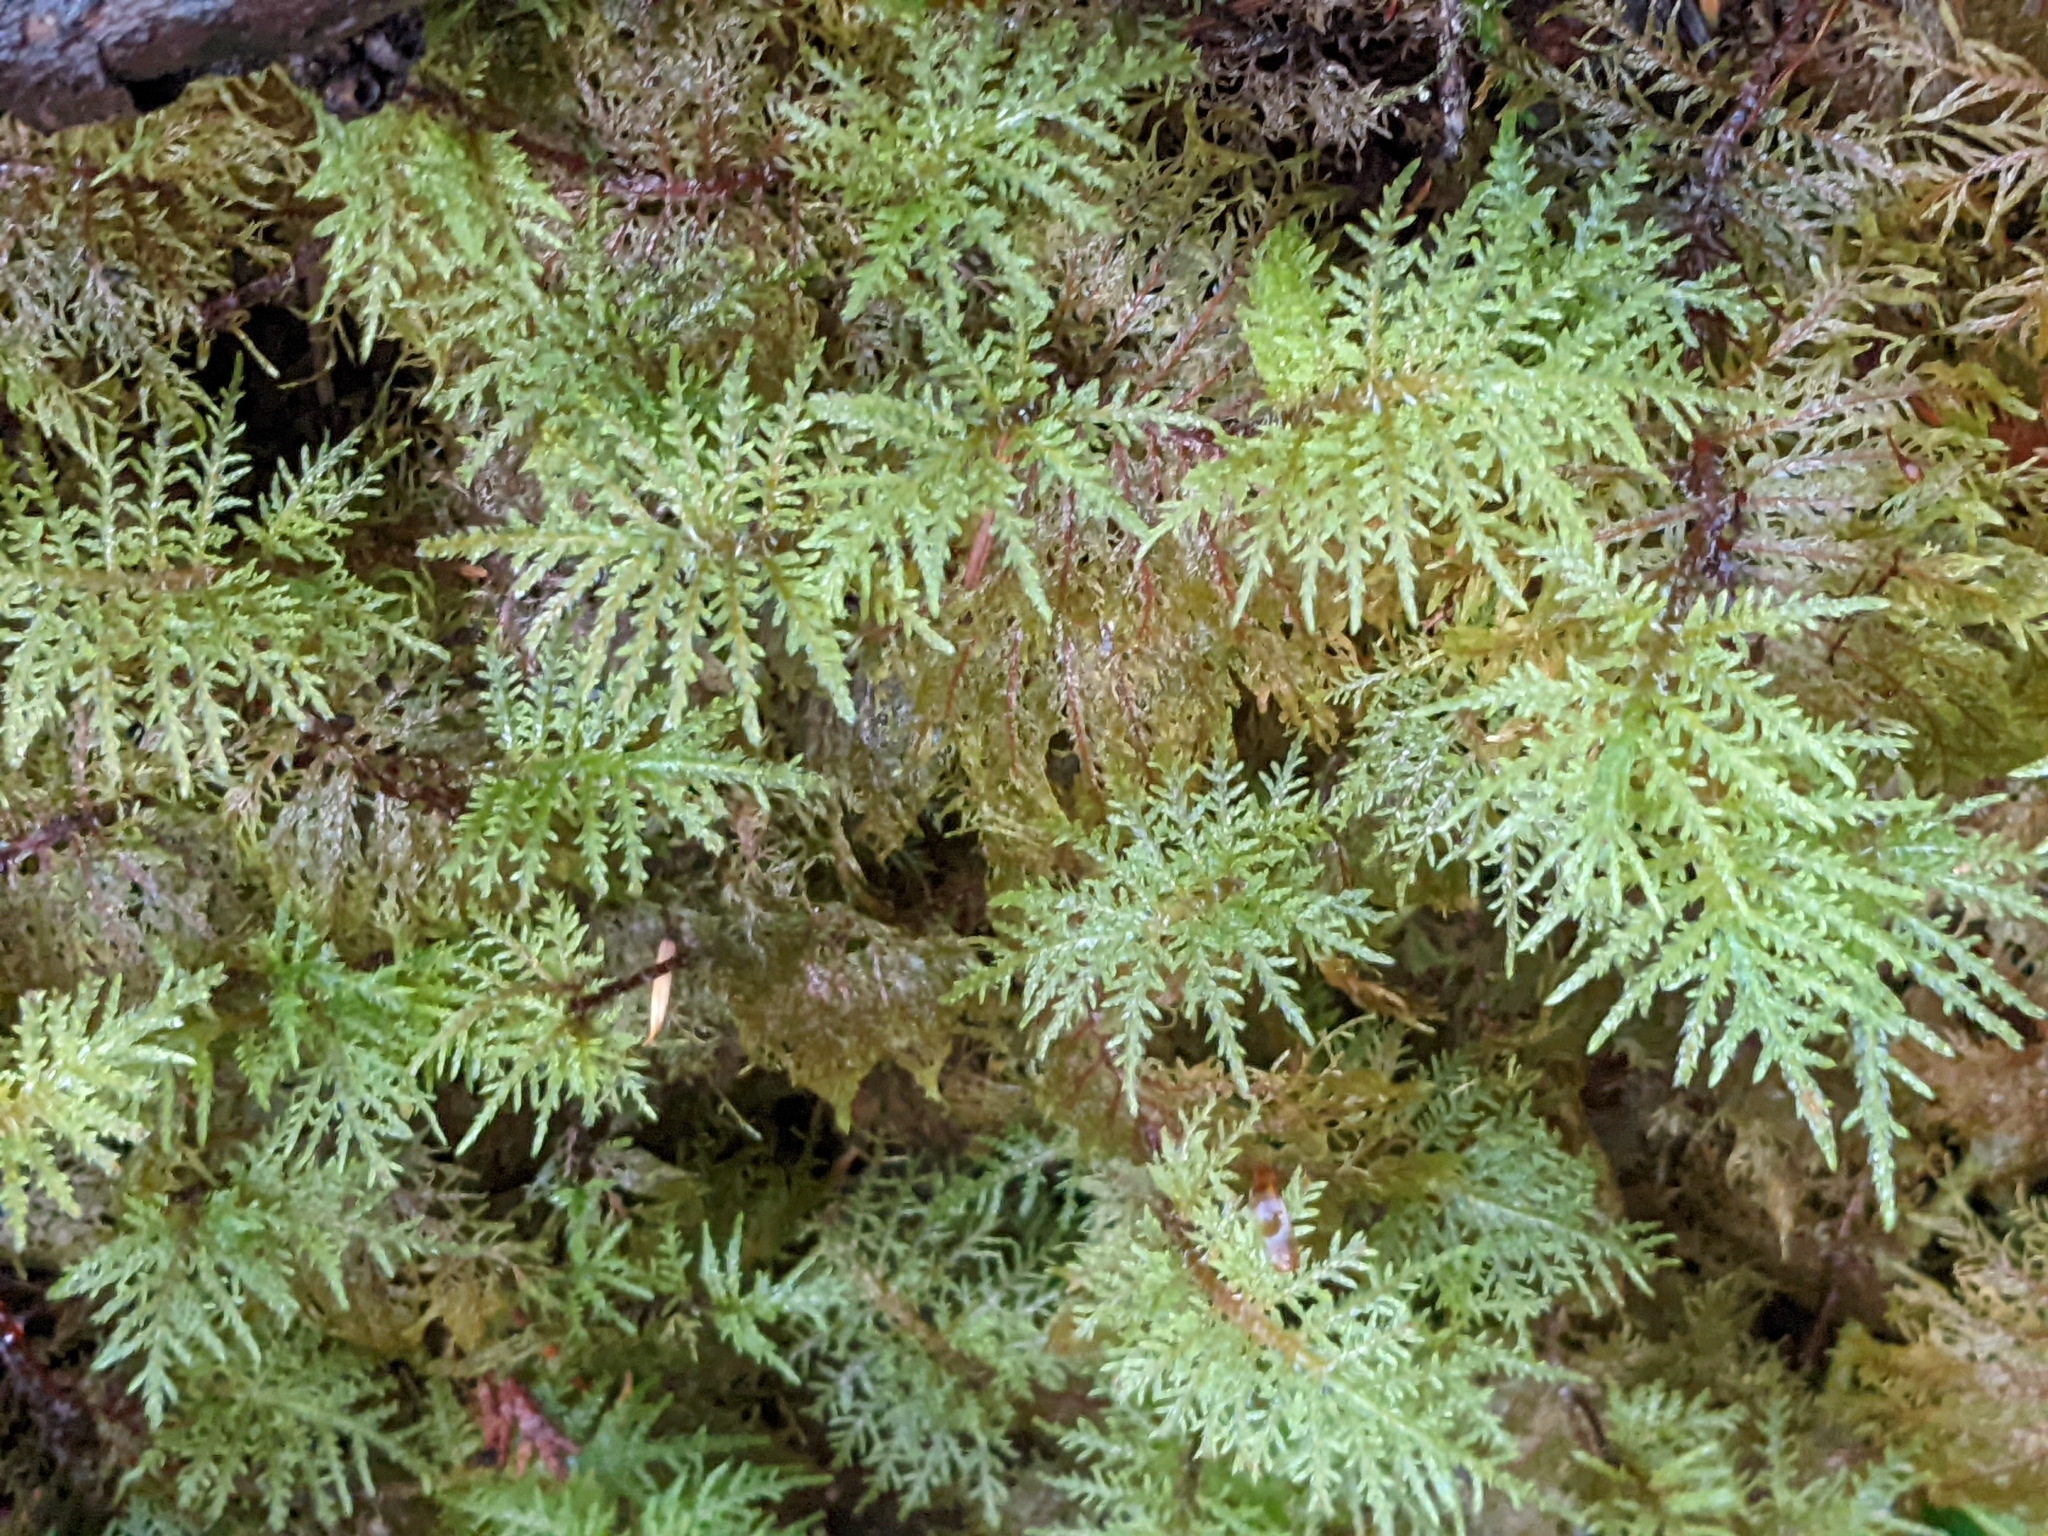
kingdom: Plantae
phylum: Bryophyta
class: Bryopsida
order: Hypnales
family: Hylocomiaceae
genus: Hylocomium
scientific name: Hylocomium splendens
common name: Stairstep moss
